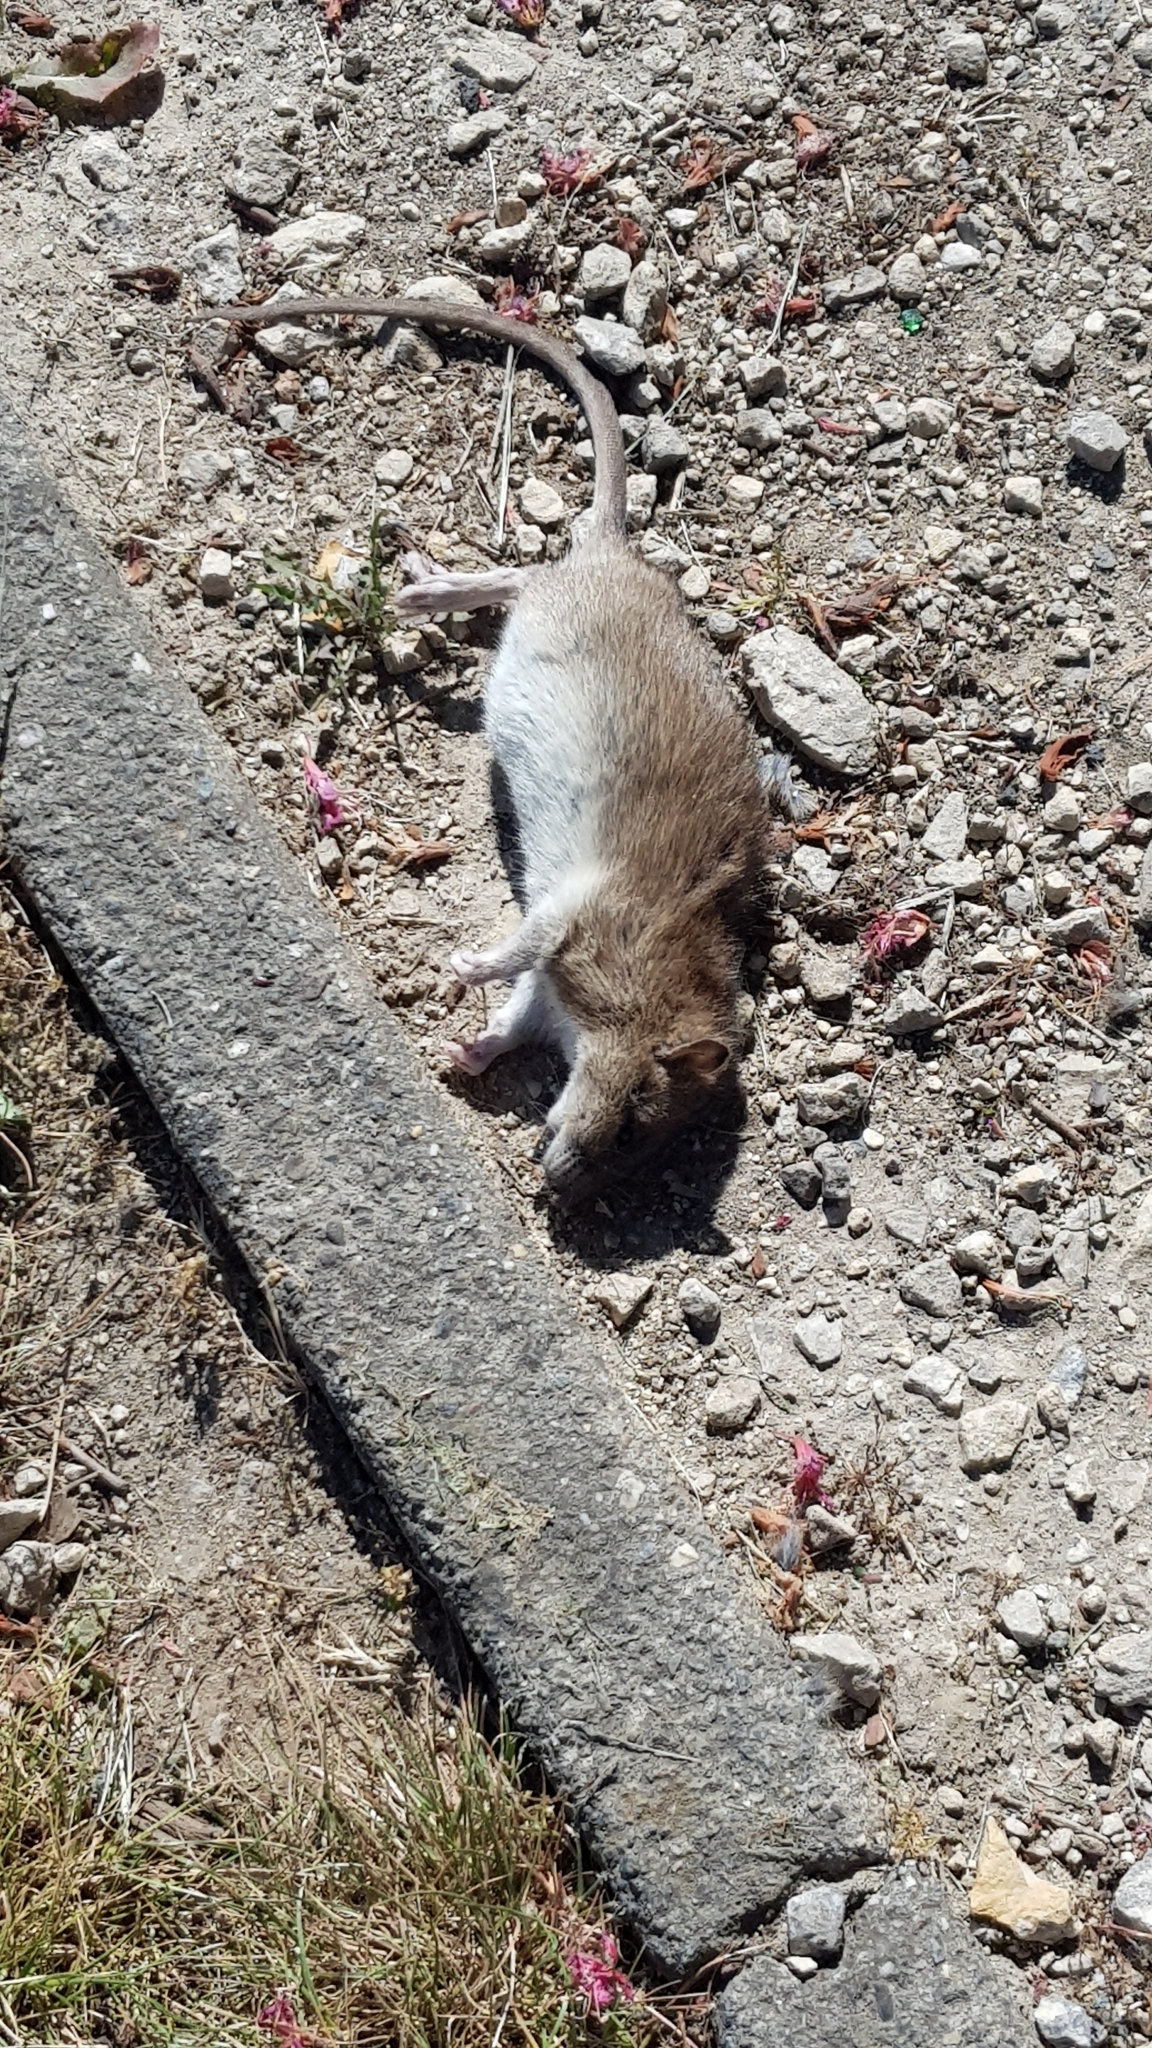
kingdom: Animalia
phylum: Chordata
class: Mammalia
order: Rodentia
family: Muridae
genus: Rattus
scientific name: Rattus norvegicus
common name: Brown rat
